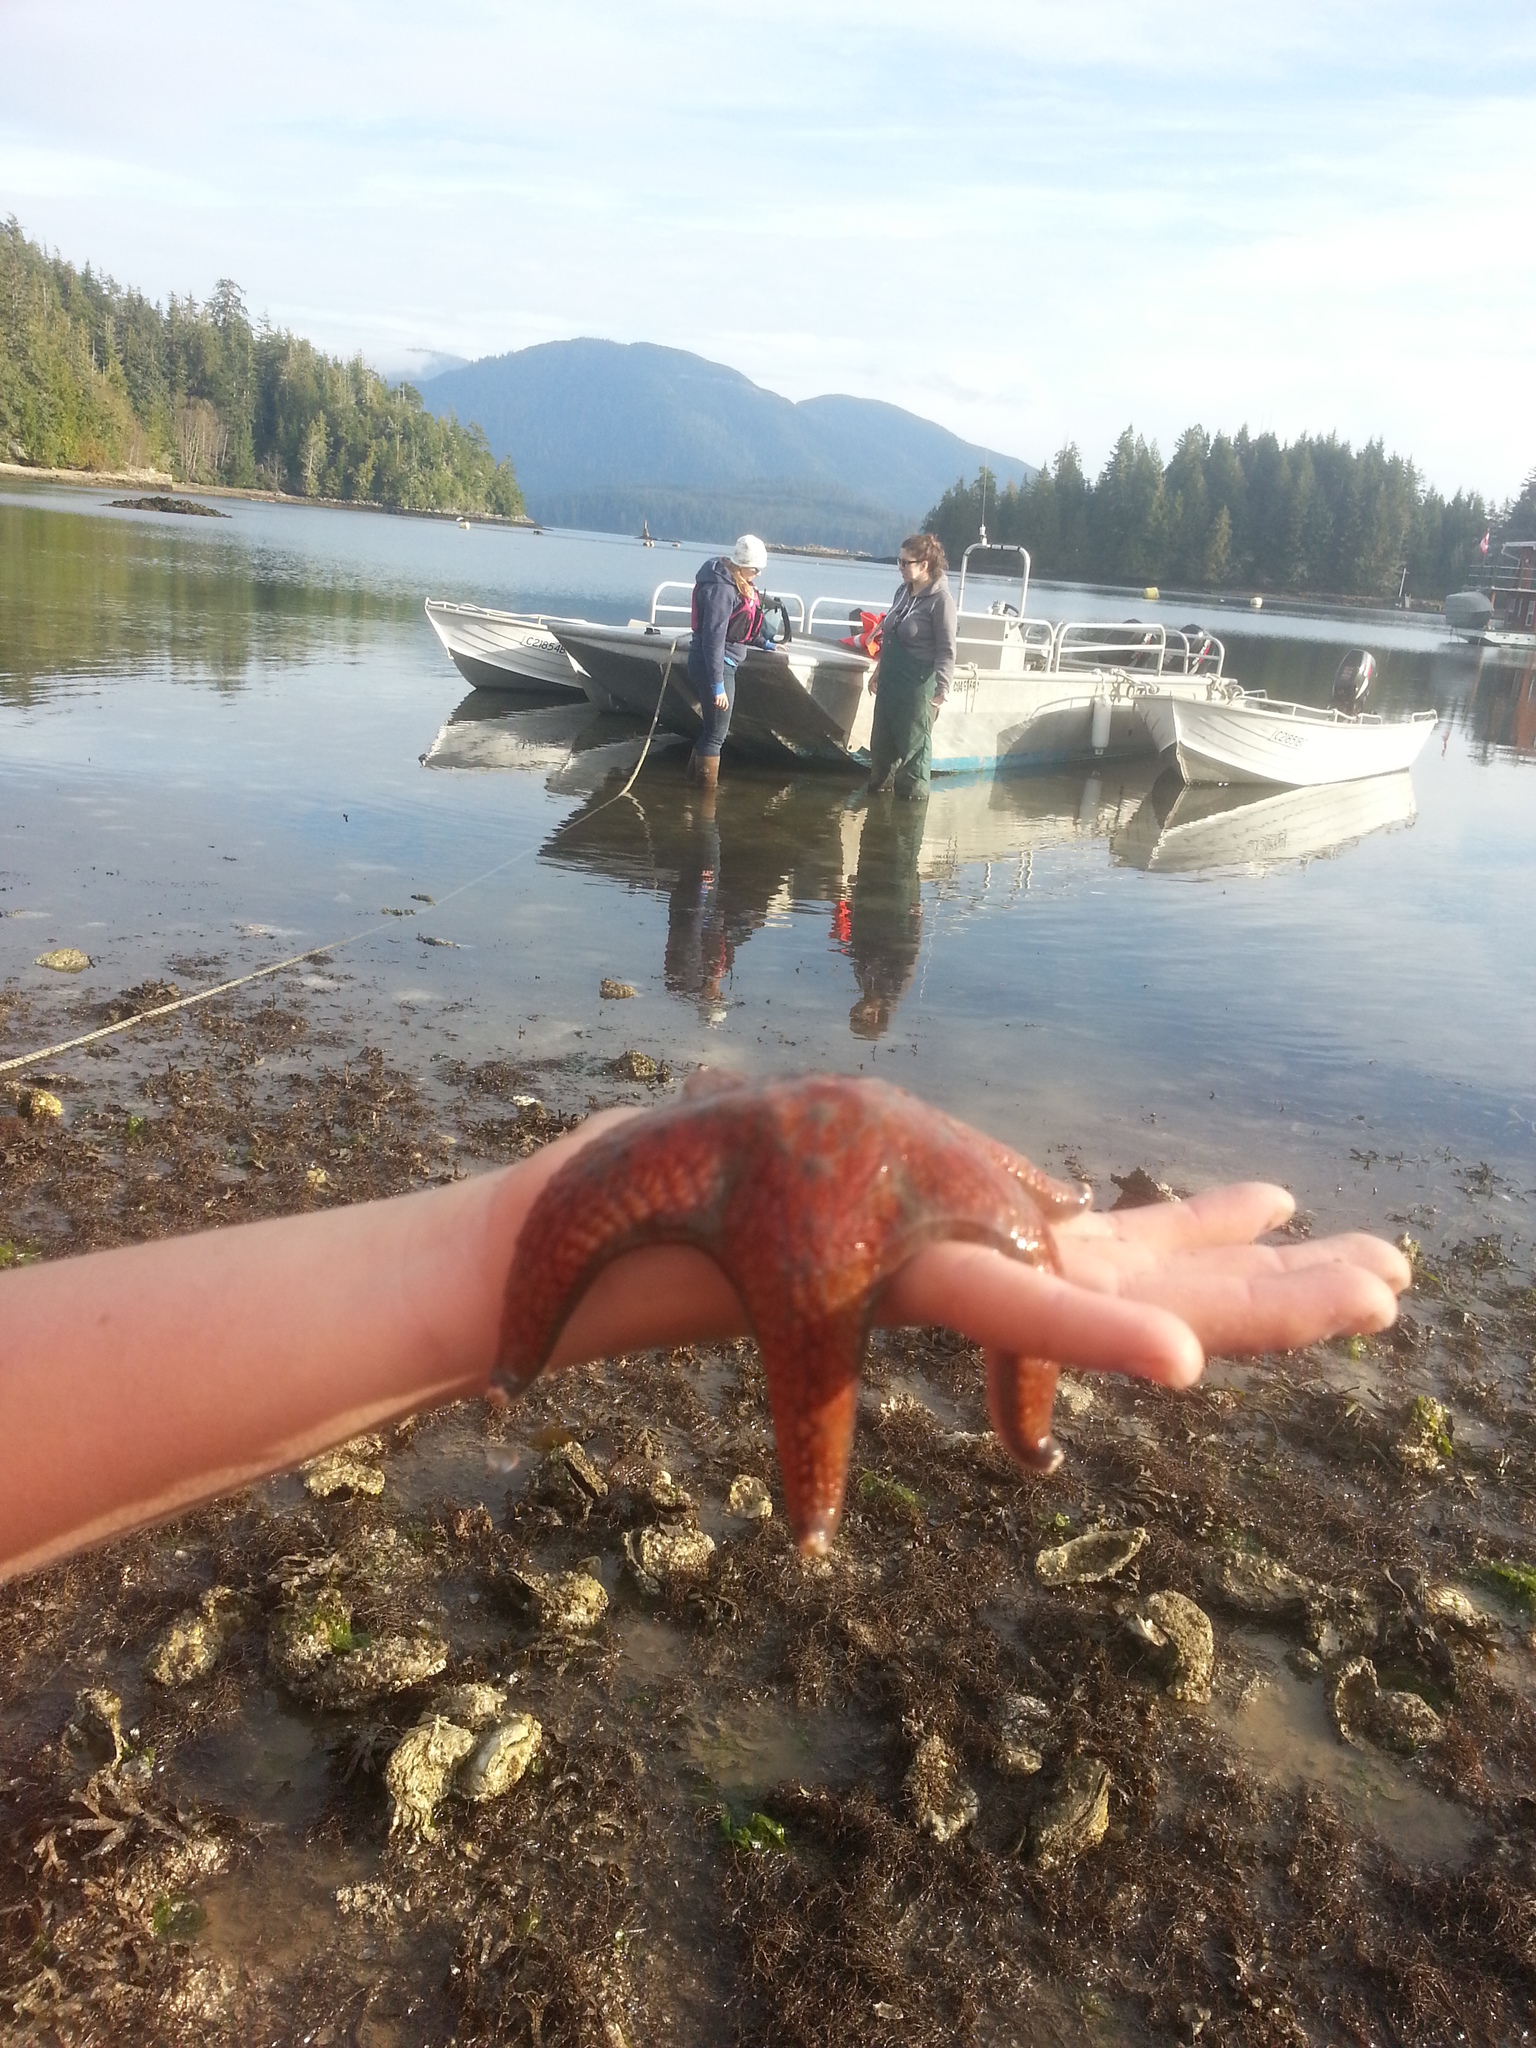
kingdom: Animalia
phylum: Echinodermata
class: Asteroidea
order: Valvatida
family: Asteropseidae
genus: Dermasterias
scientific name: Dermasterias imbricata
